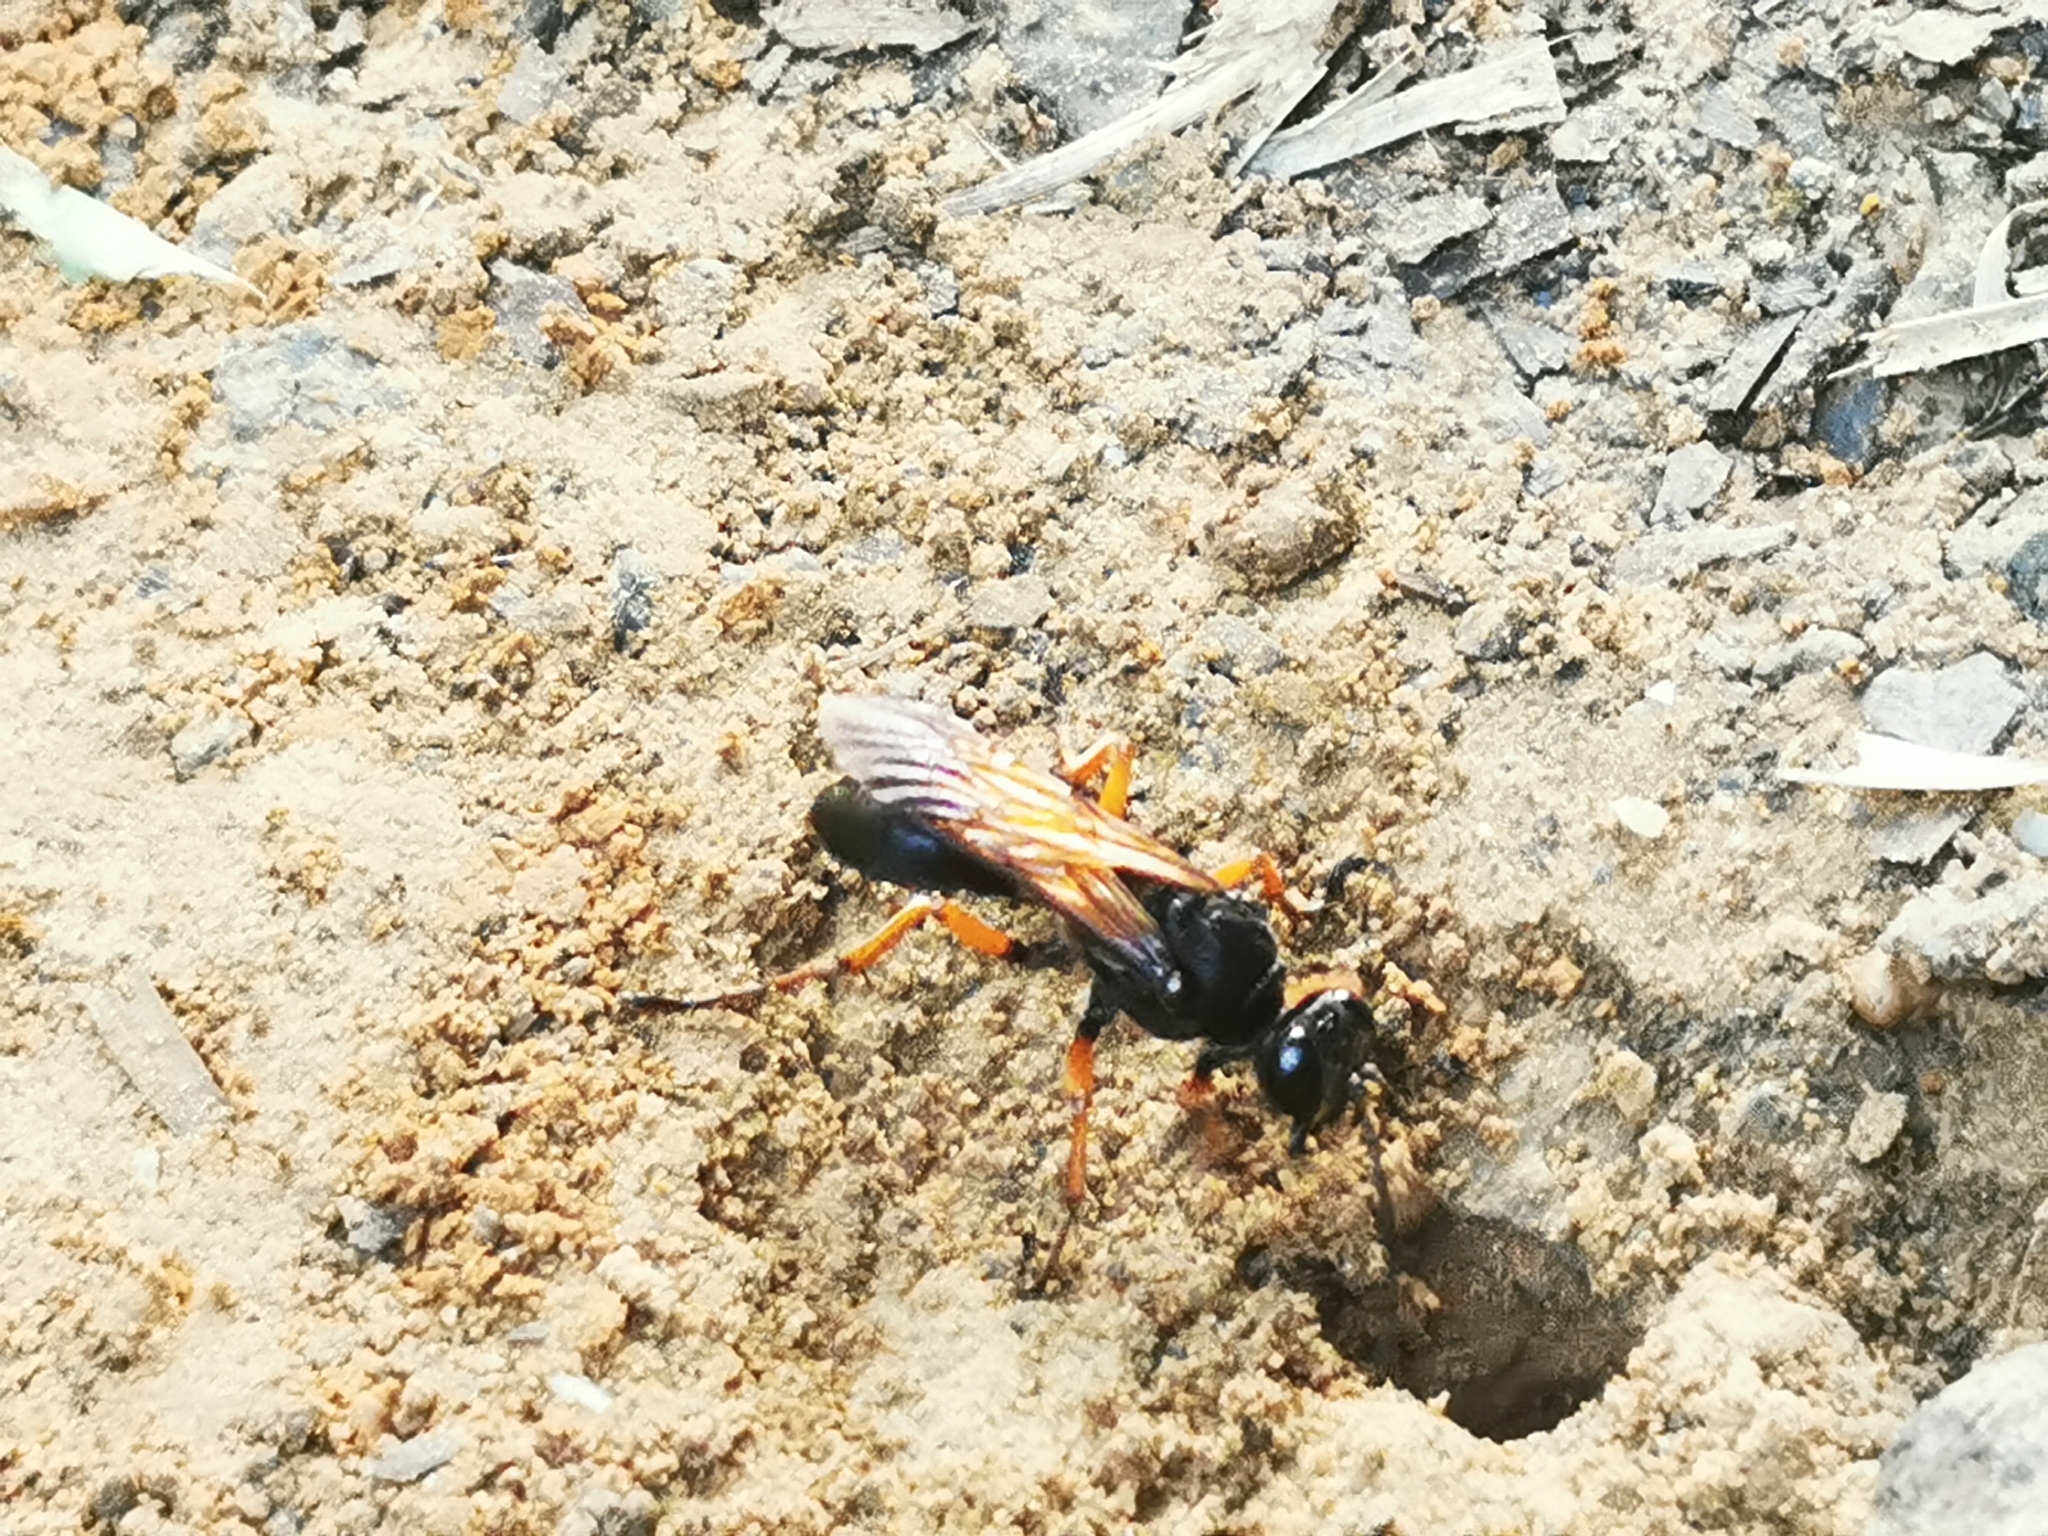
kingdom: Animalia
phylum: Arthropoda
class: Insecta
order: Hymenoptera
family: Sphecidae
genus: Sphex
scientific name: Sphex subtruncatus
